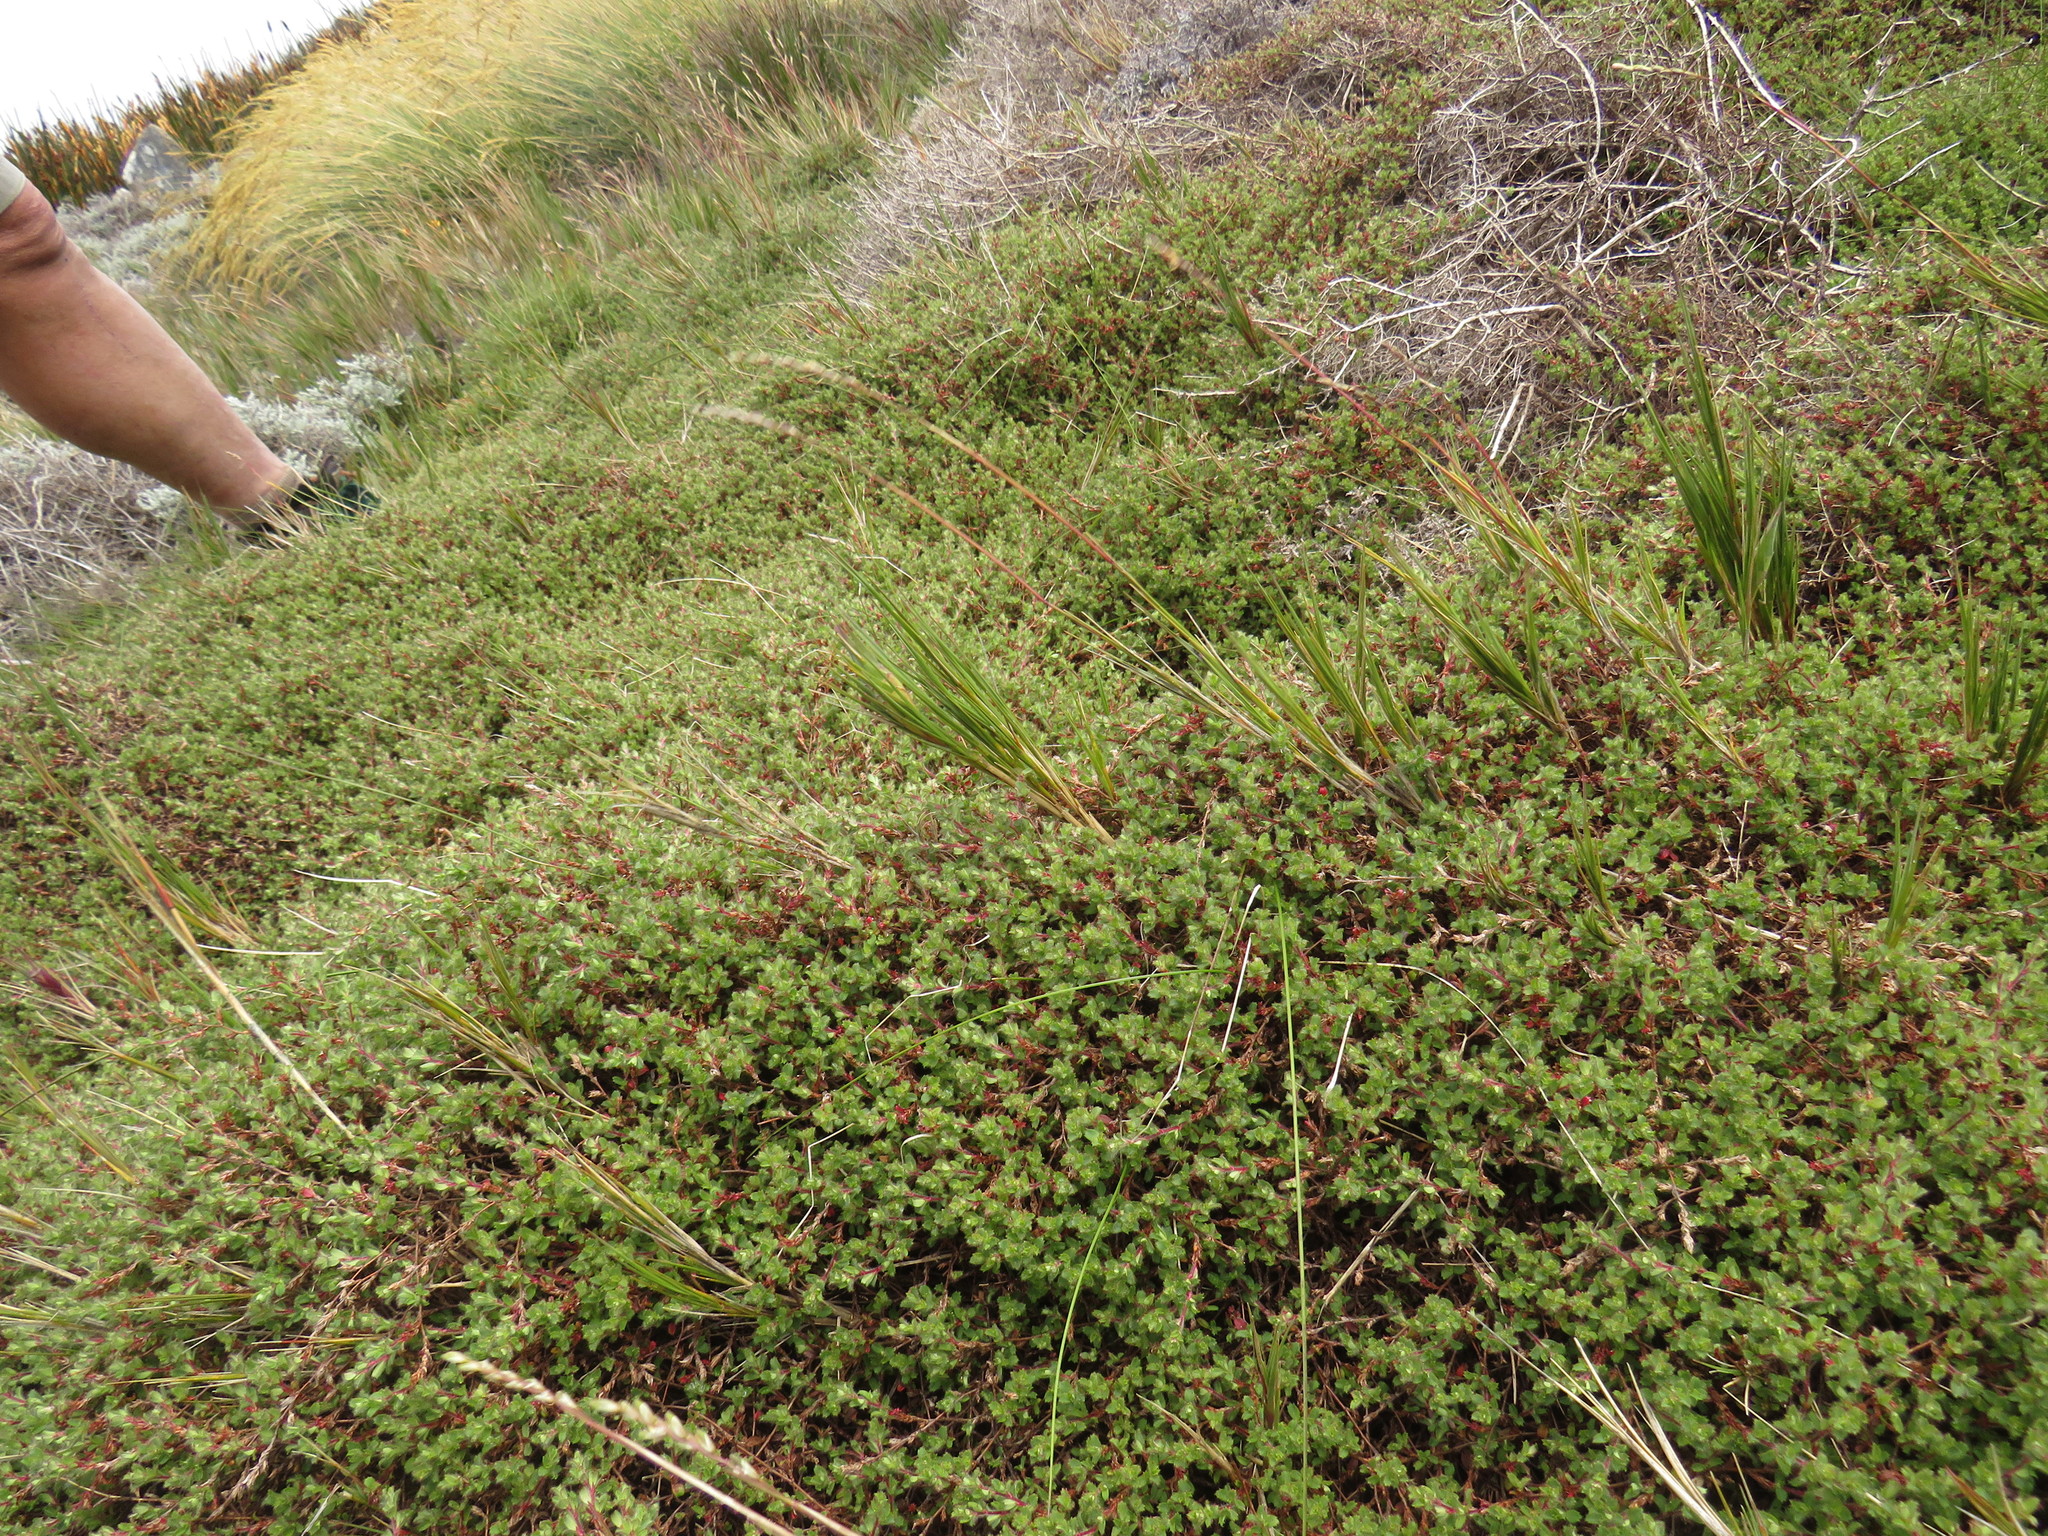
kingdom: Plantae
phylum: Tracheophyta
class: Magnoliopsida
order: Rosales
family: Rosaceae
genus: Cliffortia
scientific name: Cliffortia tricuspidata
